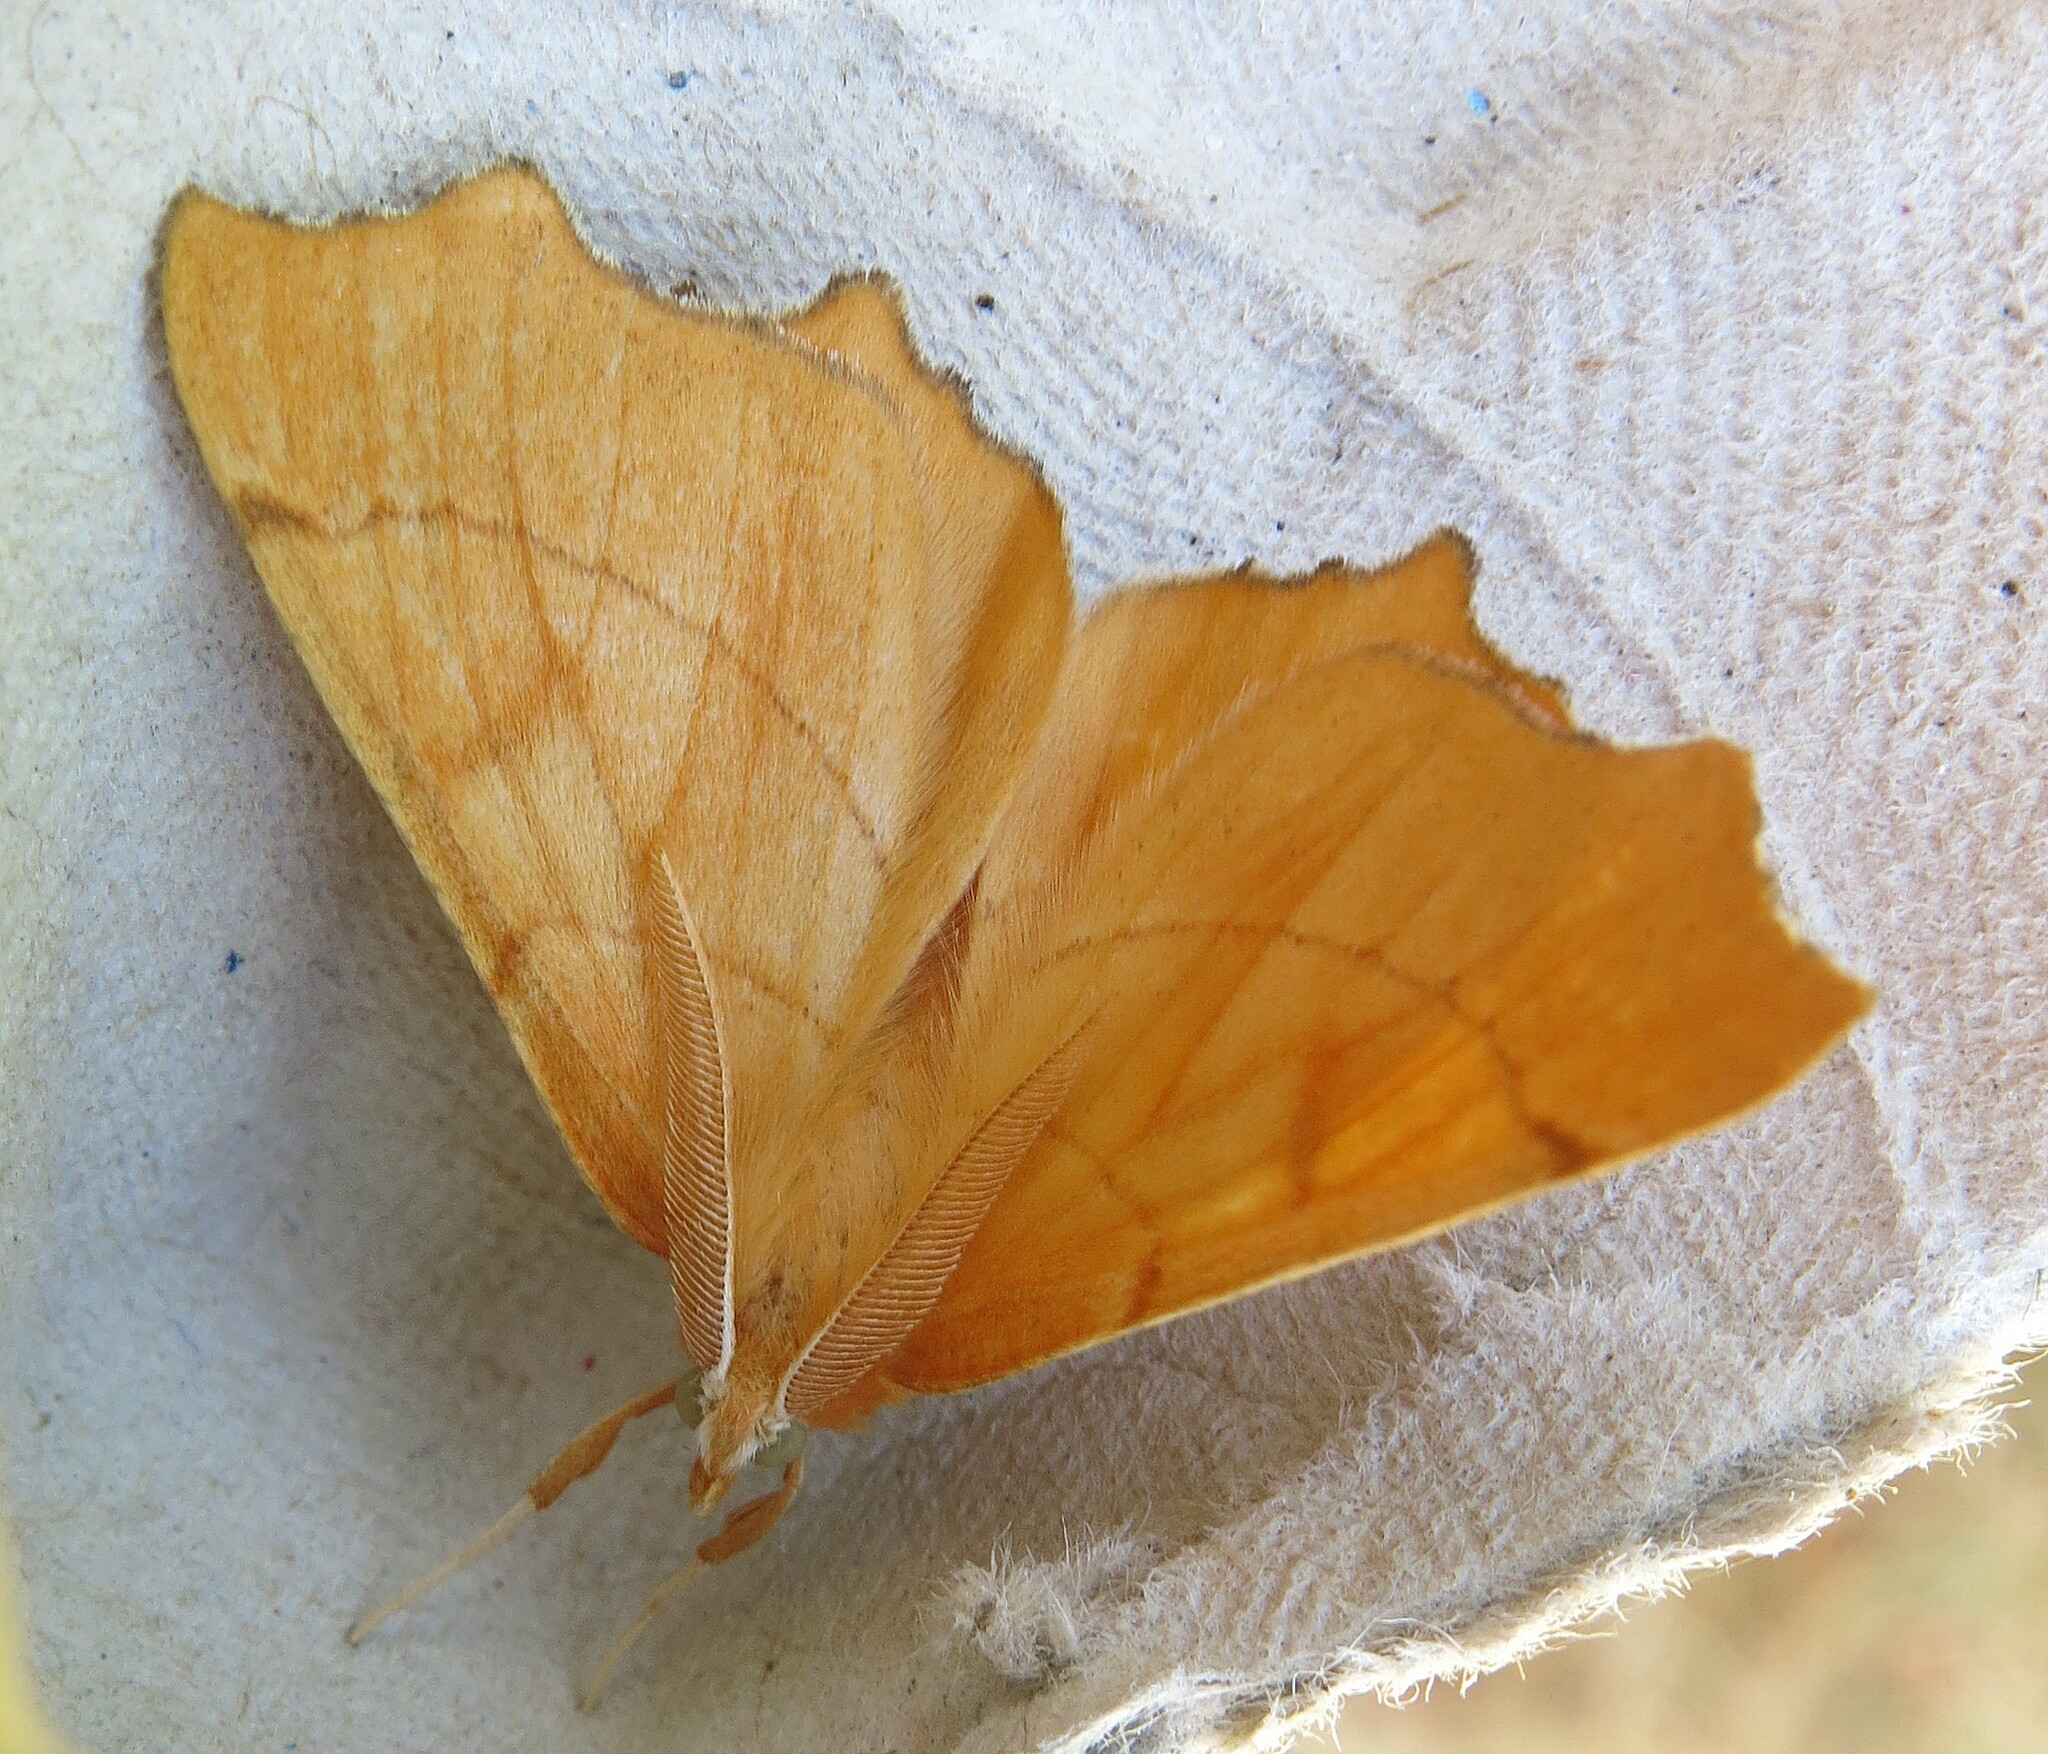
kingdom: Animalia
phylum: Arthropoda
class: Insecta
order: Lepidoptera
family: Geometridae
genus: Ennomos
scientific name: Ennomos quercinaria
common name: August thorn
